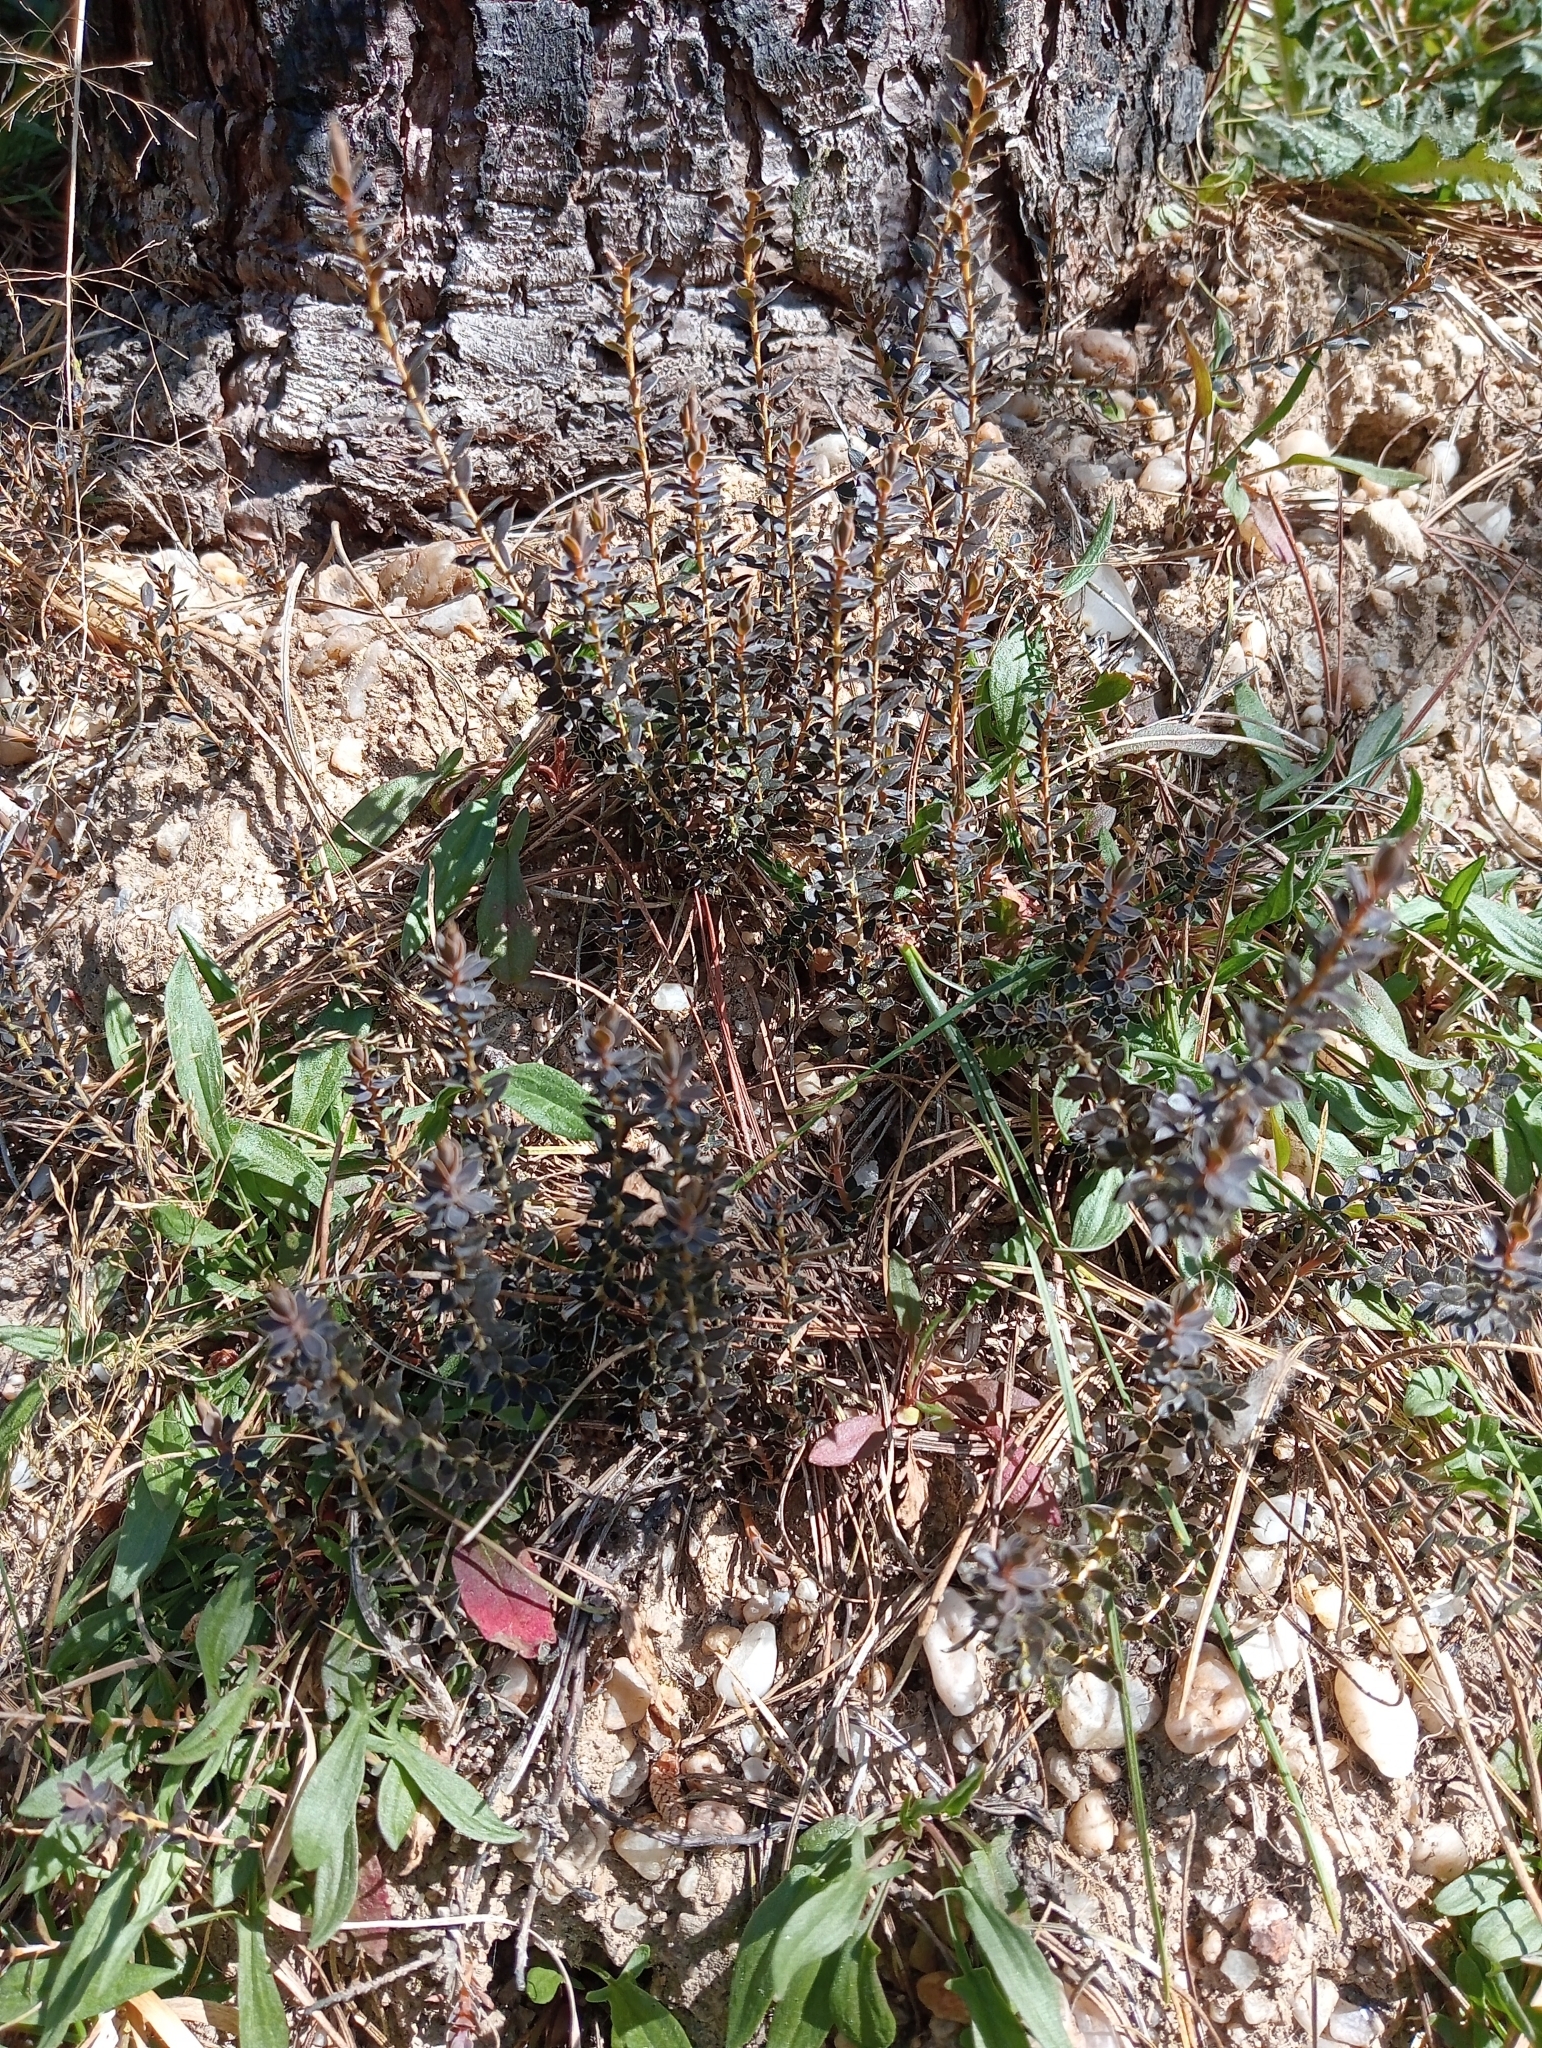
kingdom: Plantae
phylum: Tracheophyta
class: Magnoliopsida
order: Ericales
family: Ericaceae
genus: Styphelia
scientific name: Styphelia nesophila
